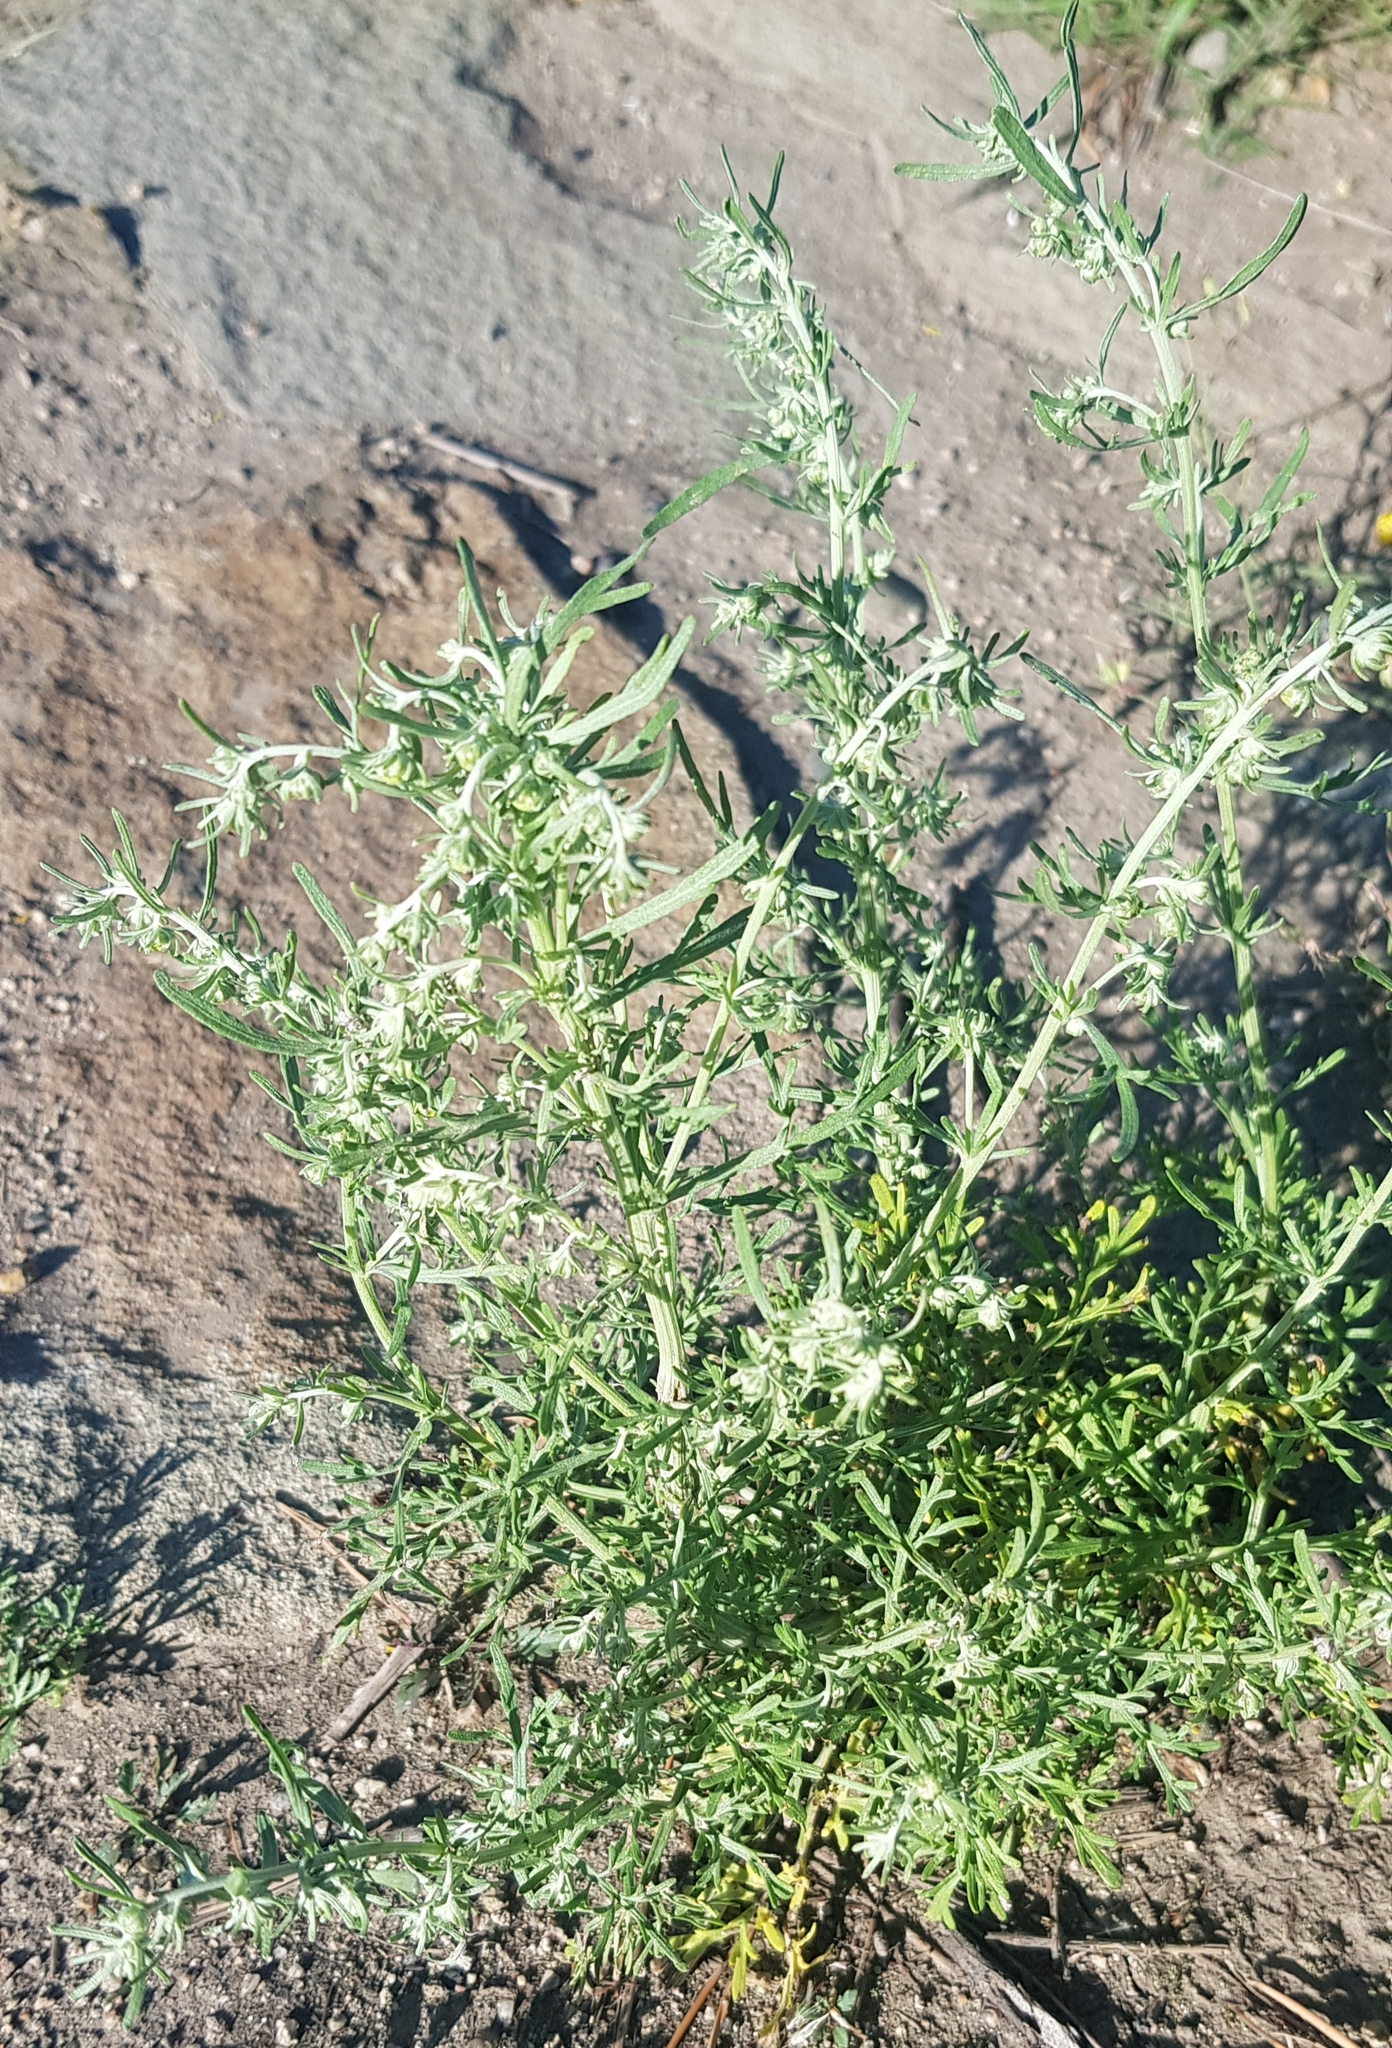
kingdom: Plantae
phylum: Tracheophyta
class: Magnoliopsida
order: Asterales
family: Asteraceae
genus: Artemisia
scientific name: Artemisia sieversiana
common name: Sieversian wormwood
